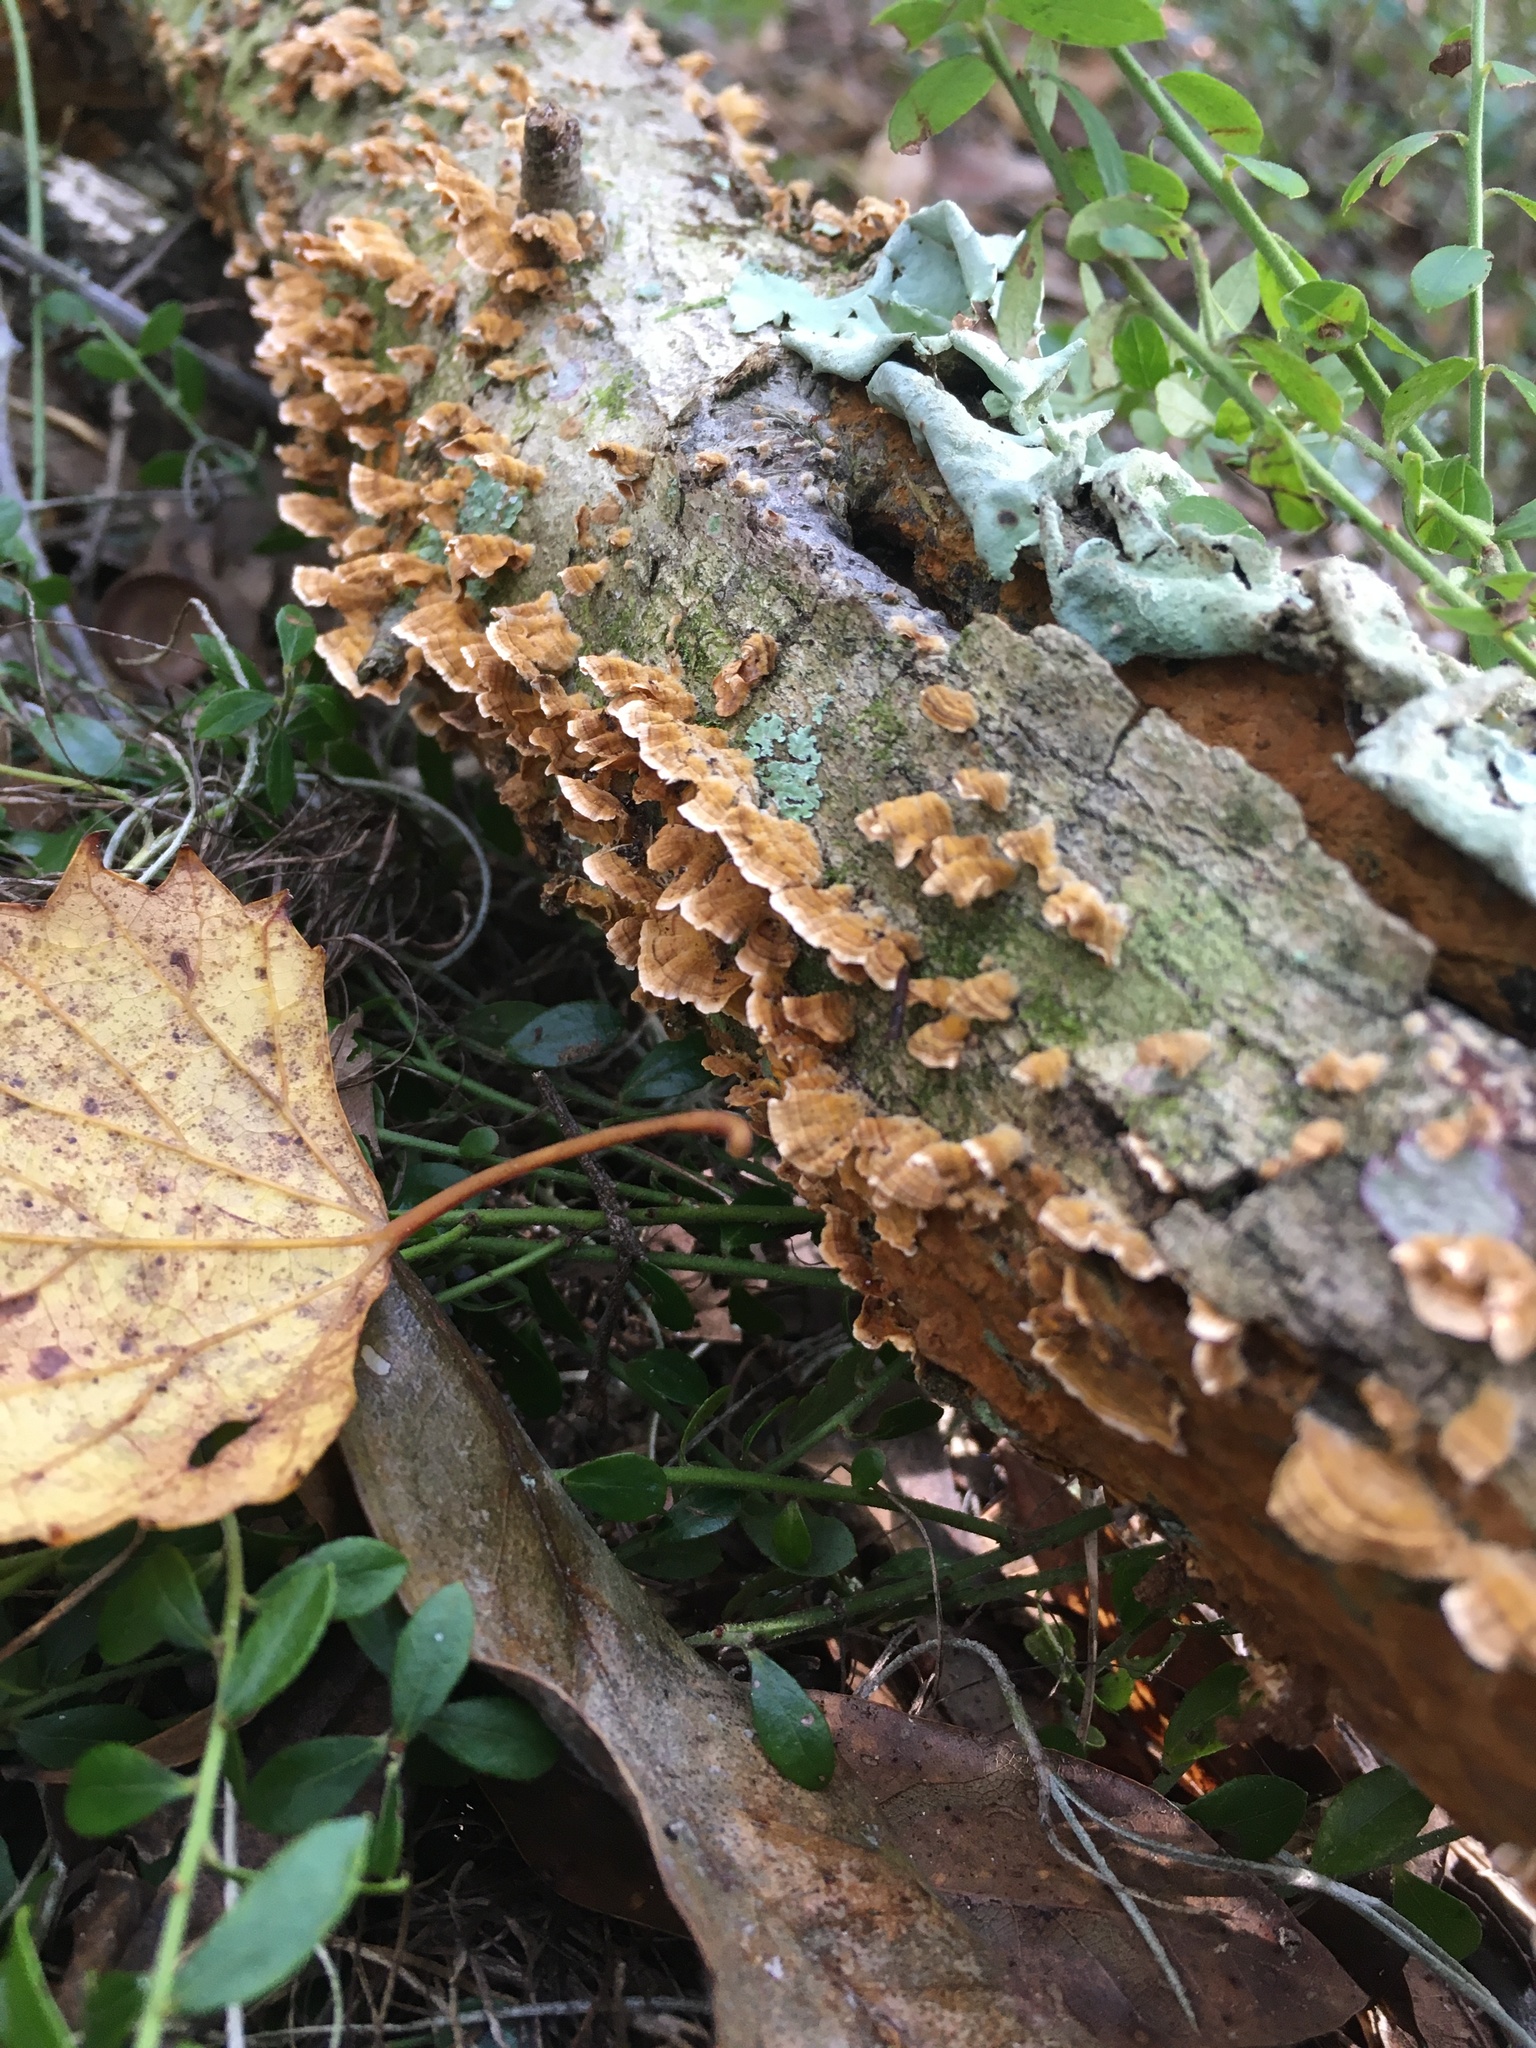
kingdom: Fungi
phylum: Basidiomycota
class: Agaricomycetes
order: Russulales
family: Stereaceae
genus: Stereum
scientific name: Stereum complicatum
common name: Crowded parchment
